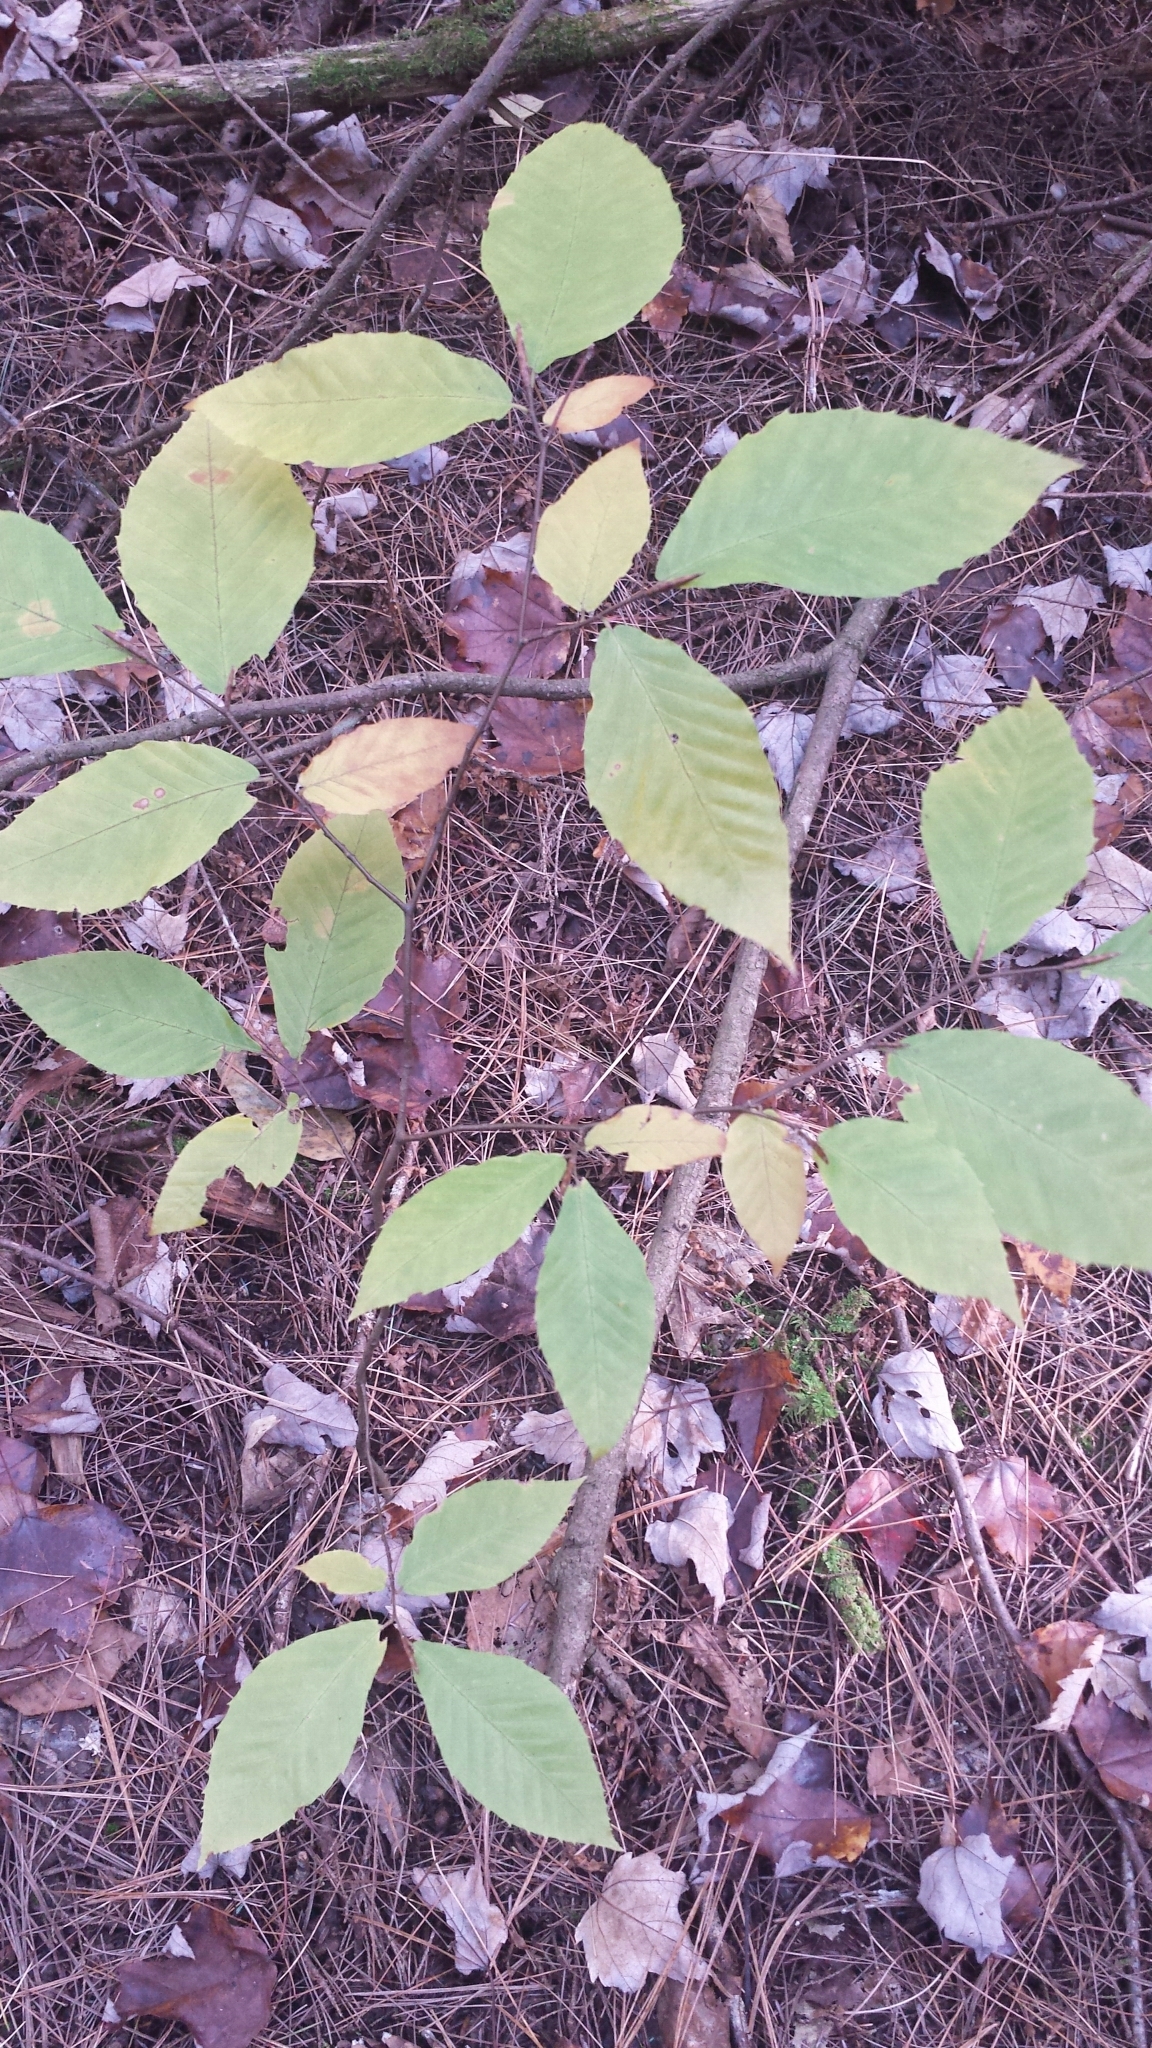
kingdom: Plantae
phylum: Tracheophyta
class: Magnoliopsida
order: Fagales
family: Fagaceae
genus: Fagus
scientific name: Fagus grandifolia
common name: American beech
